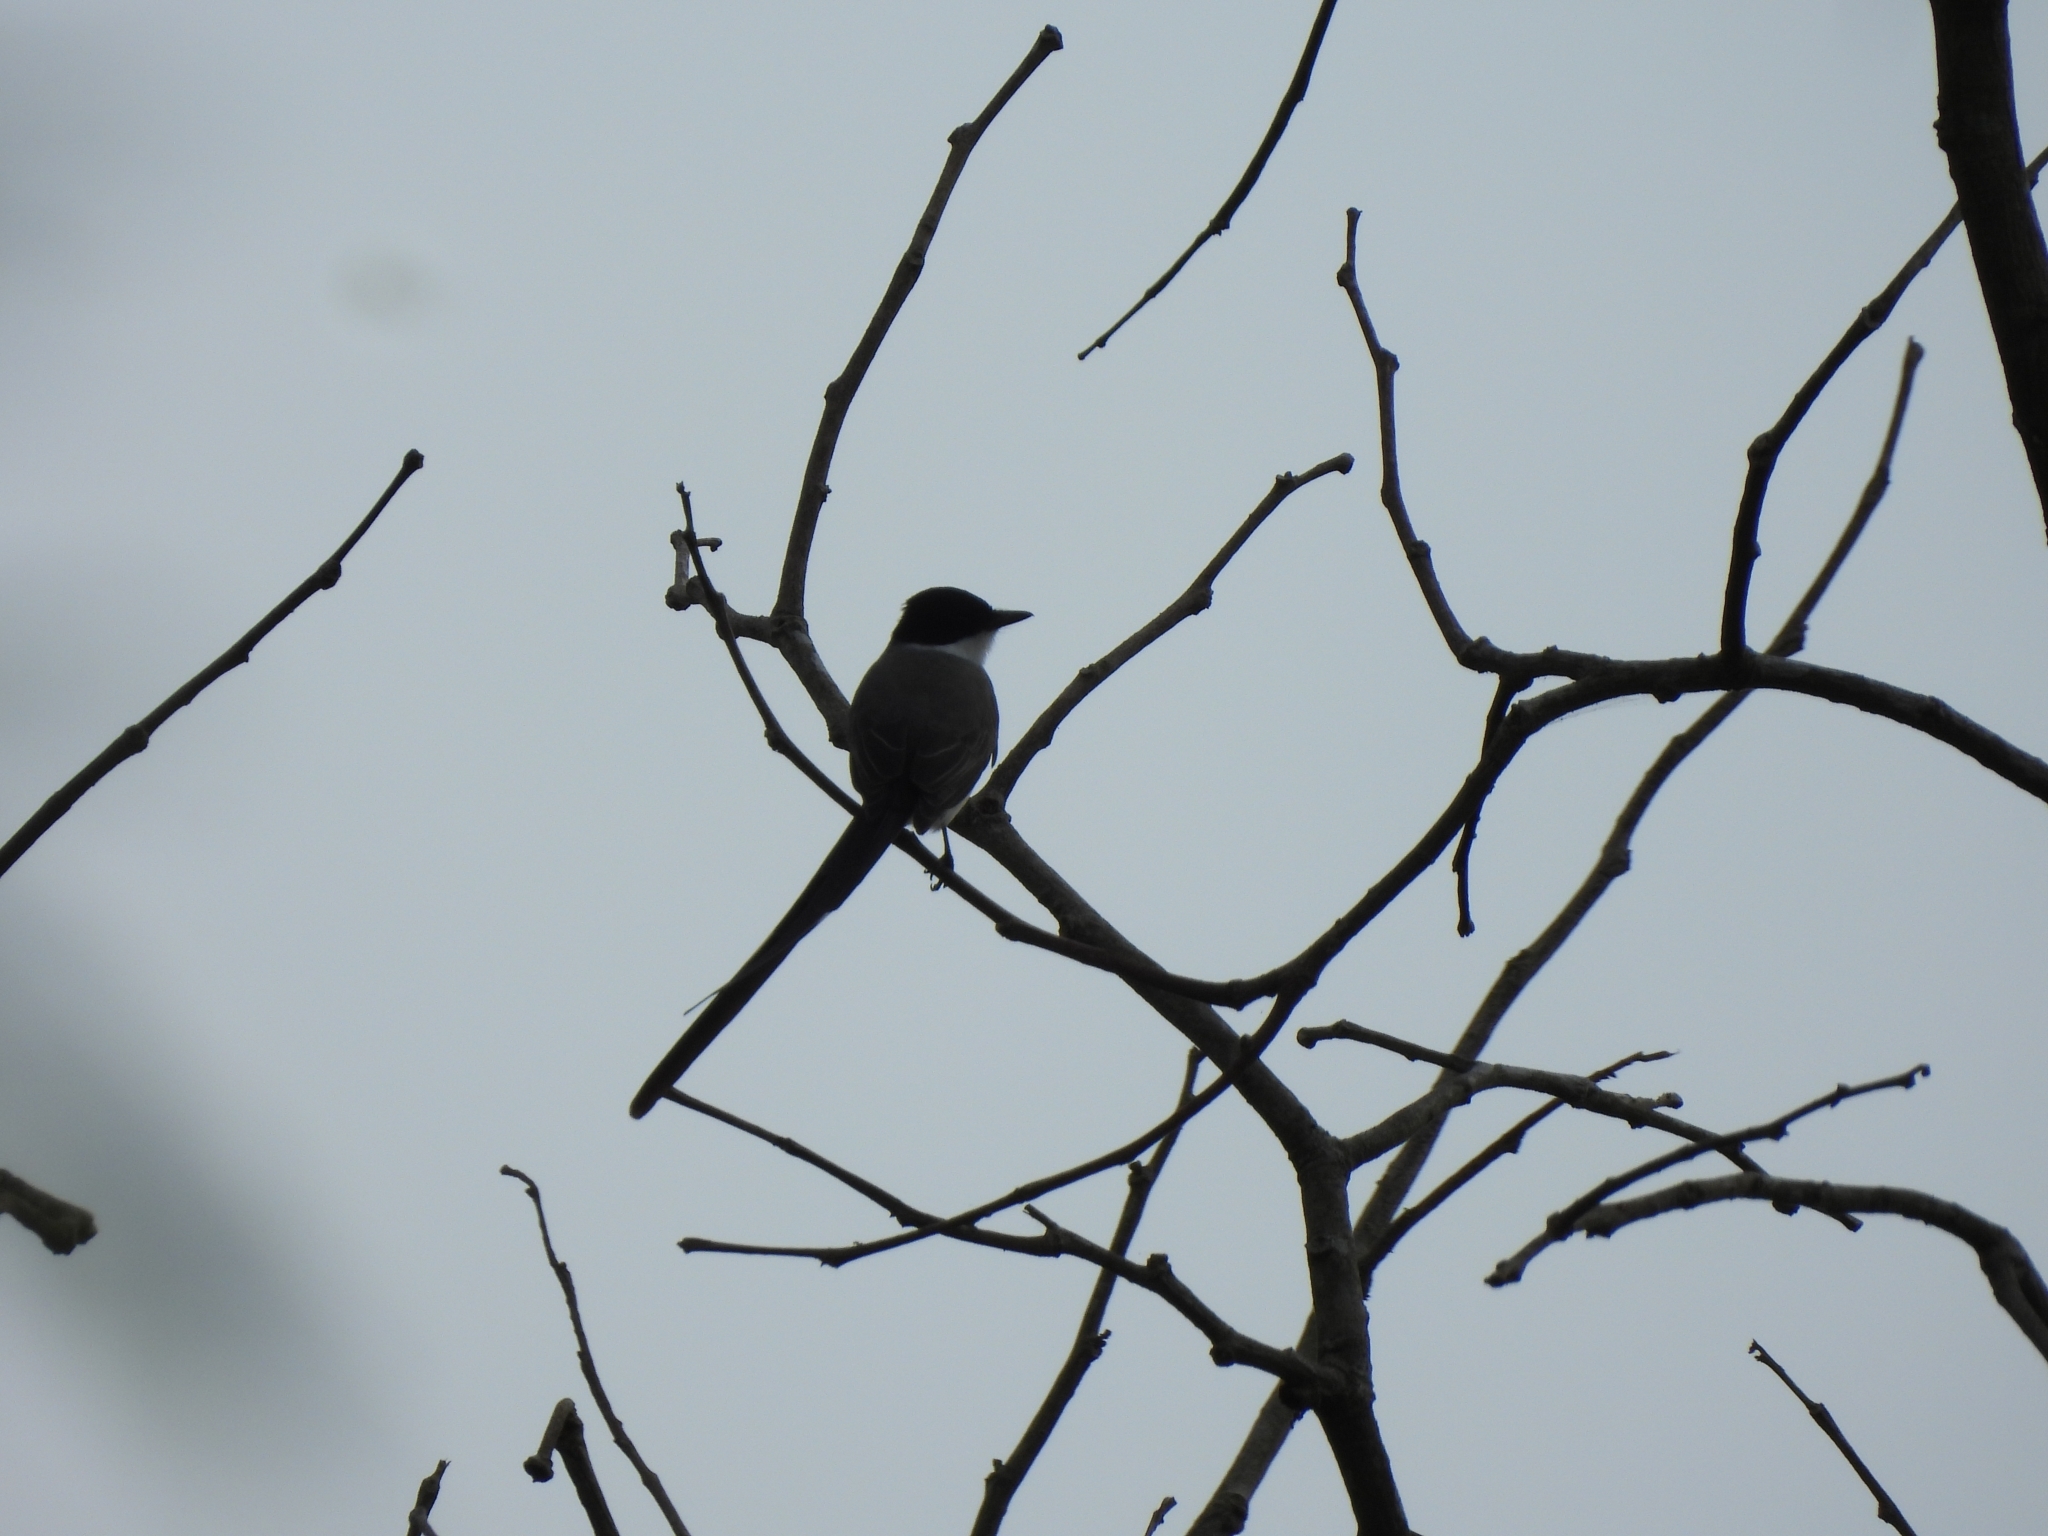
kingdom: Animalia
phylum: Chordata
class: Aves
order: Passeriformes
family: Tyrannidae
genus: Tyrannus
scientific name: Tyrannus savana
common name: Fork-tailed flycatcher
